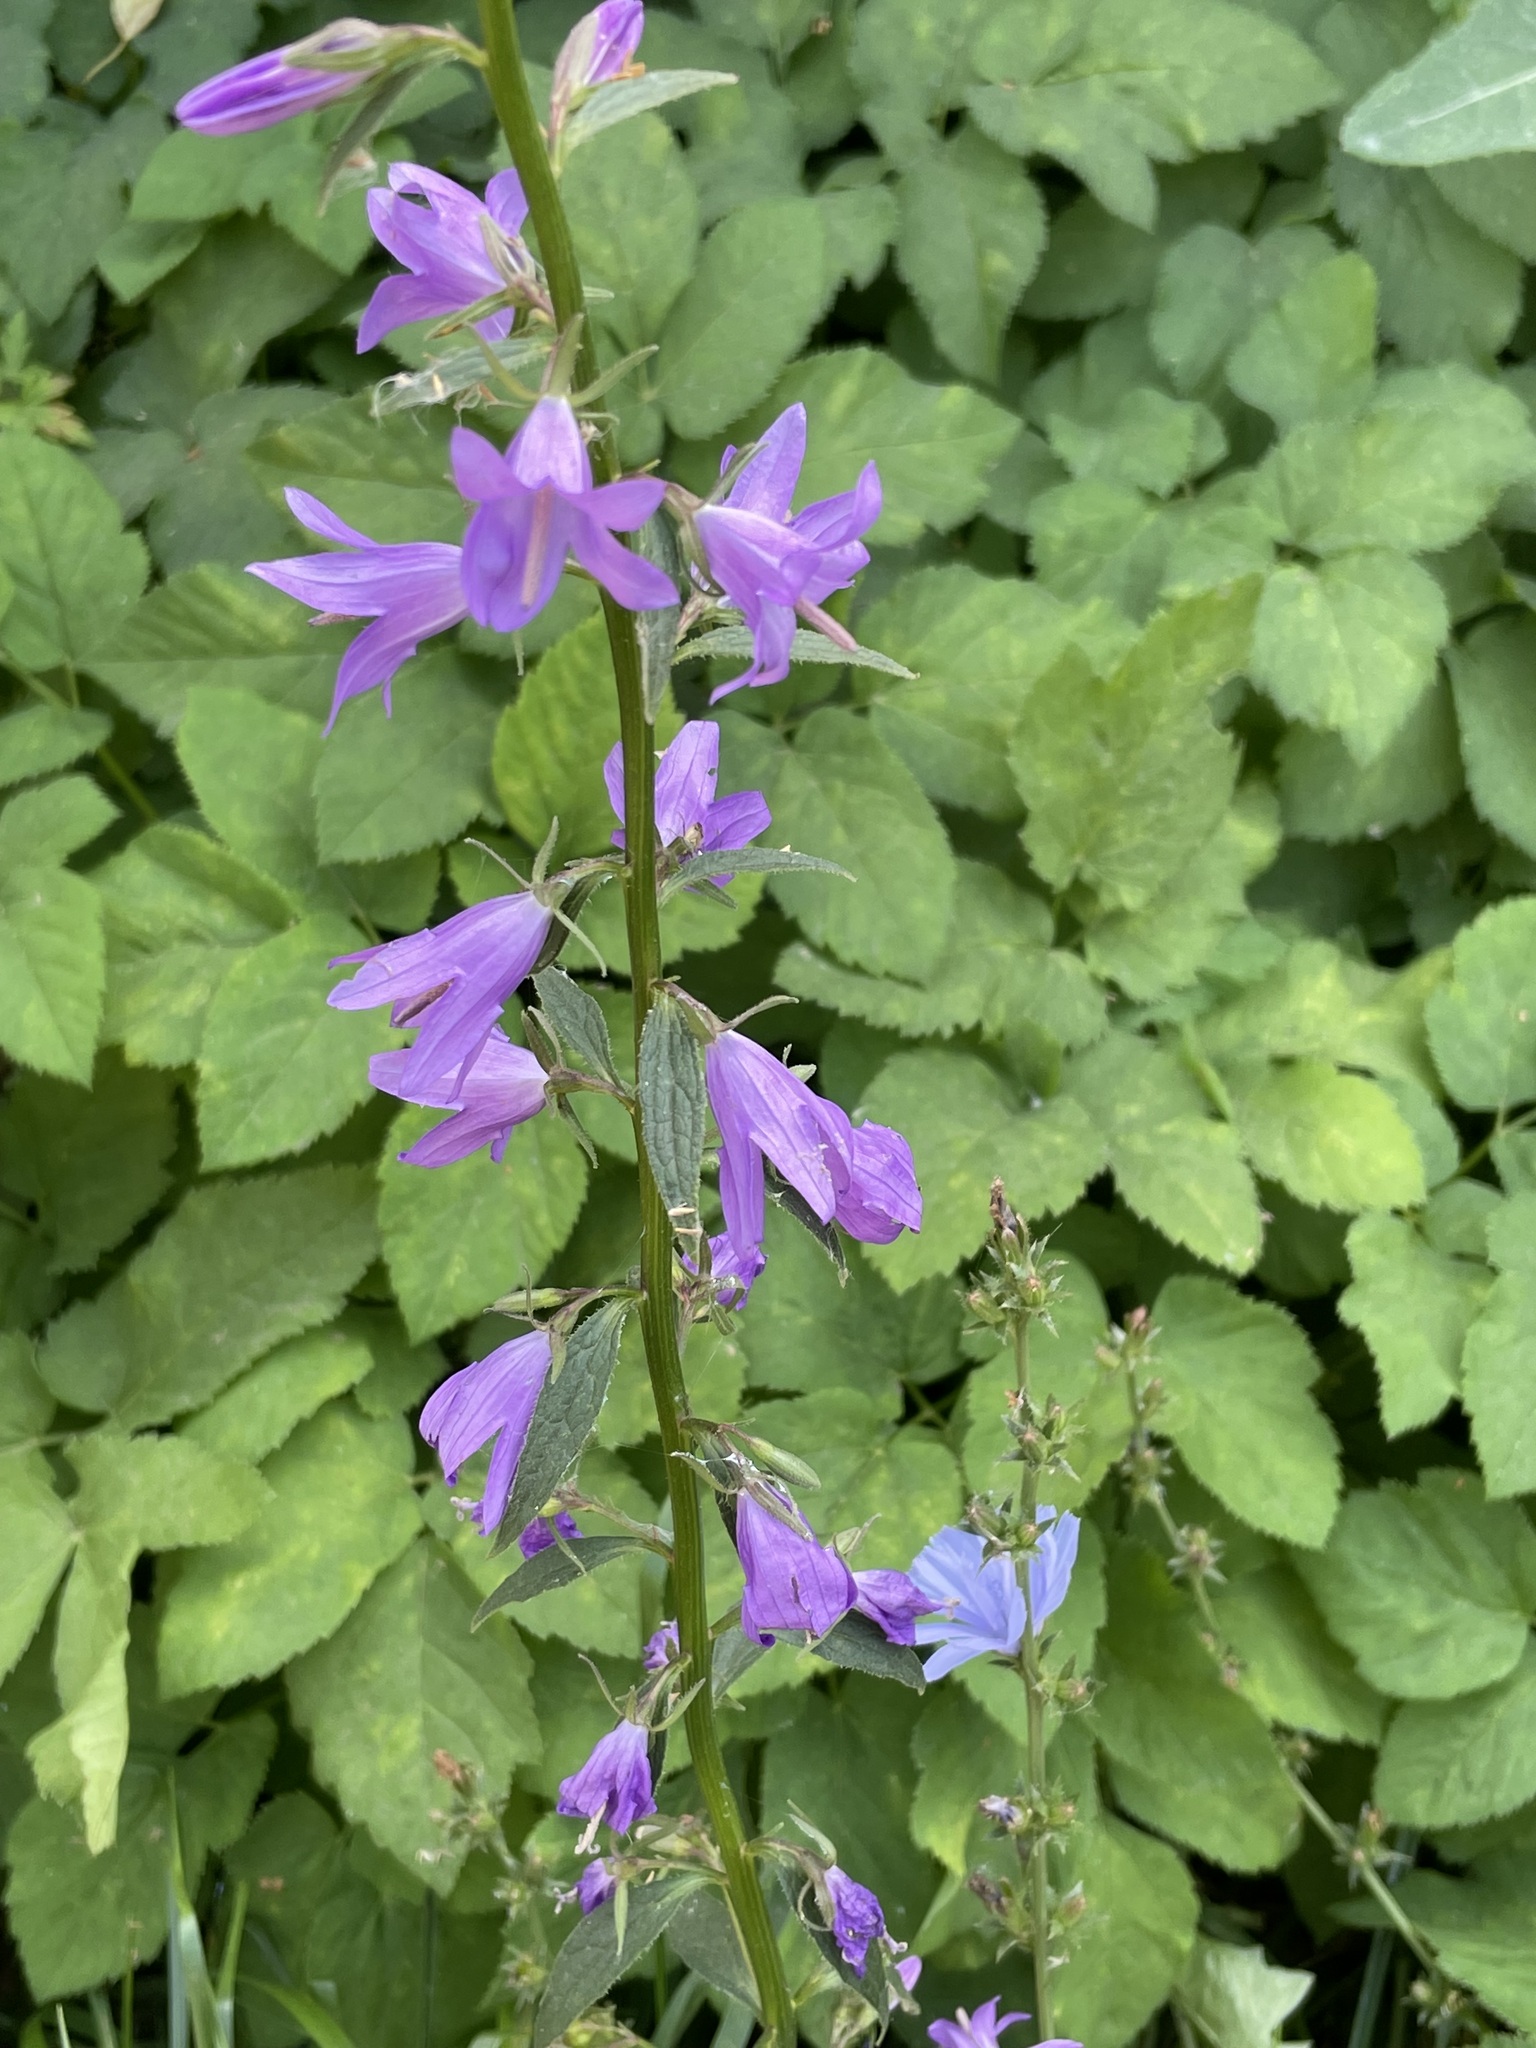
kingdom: Plantae
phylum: Tracheophyta
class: Magnoliopsida
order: Asterales
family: Campanulaceae
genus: Campanula
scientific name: Campanula rapunculoides
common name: Creeping bellflower
